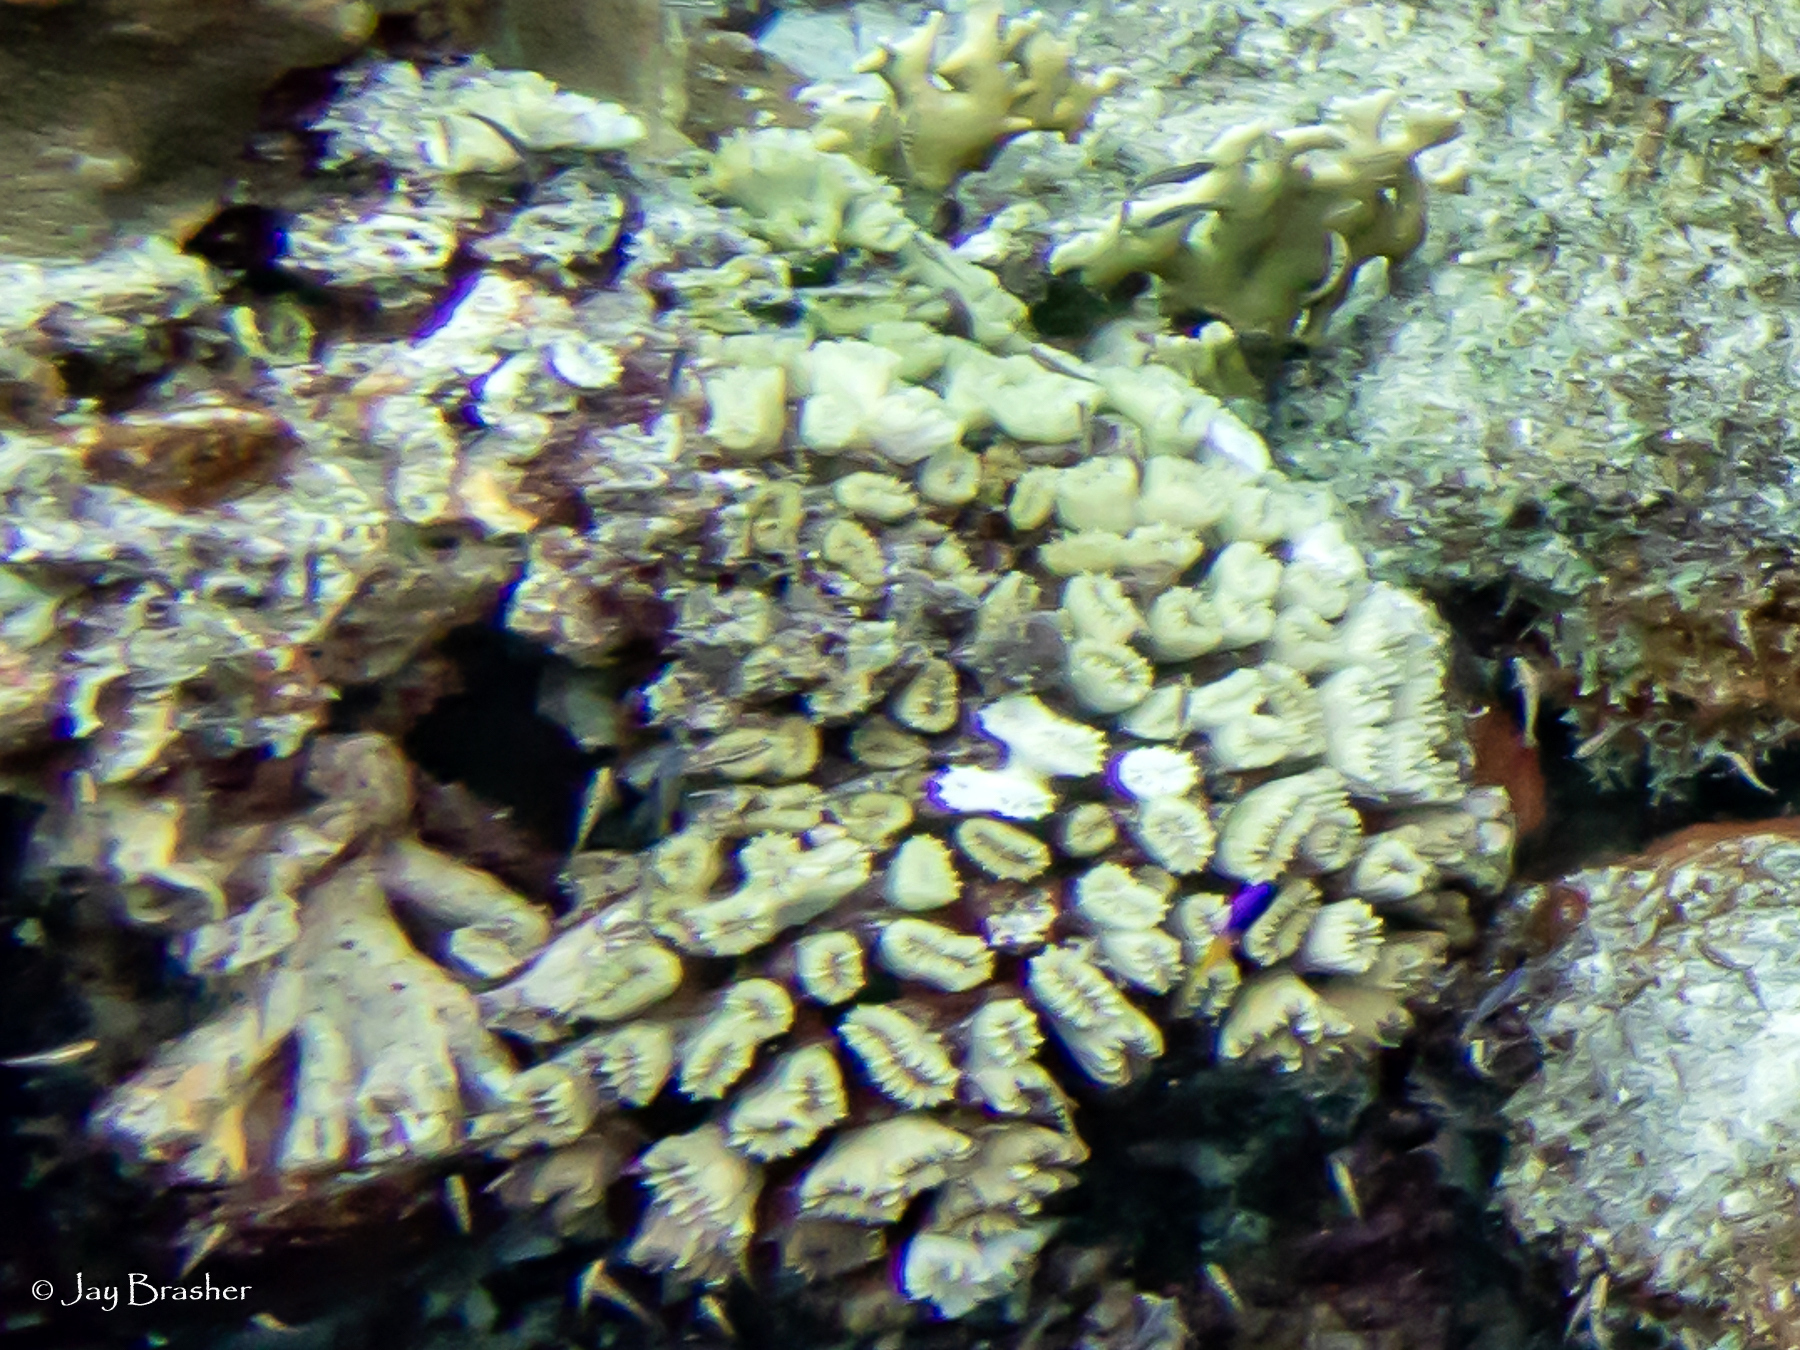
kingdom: Animalia
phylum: Cnidaria
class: Anthozoa
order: Scleractinia
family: Meandrinidae
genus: Eusmilia
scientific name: Eusmilia fastigiata
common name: Smooth flower coral
